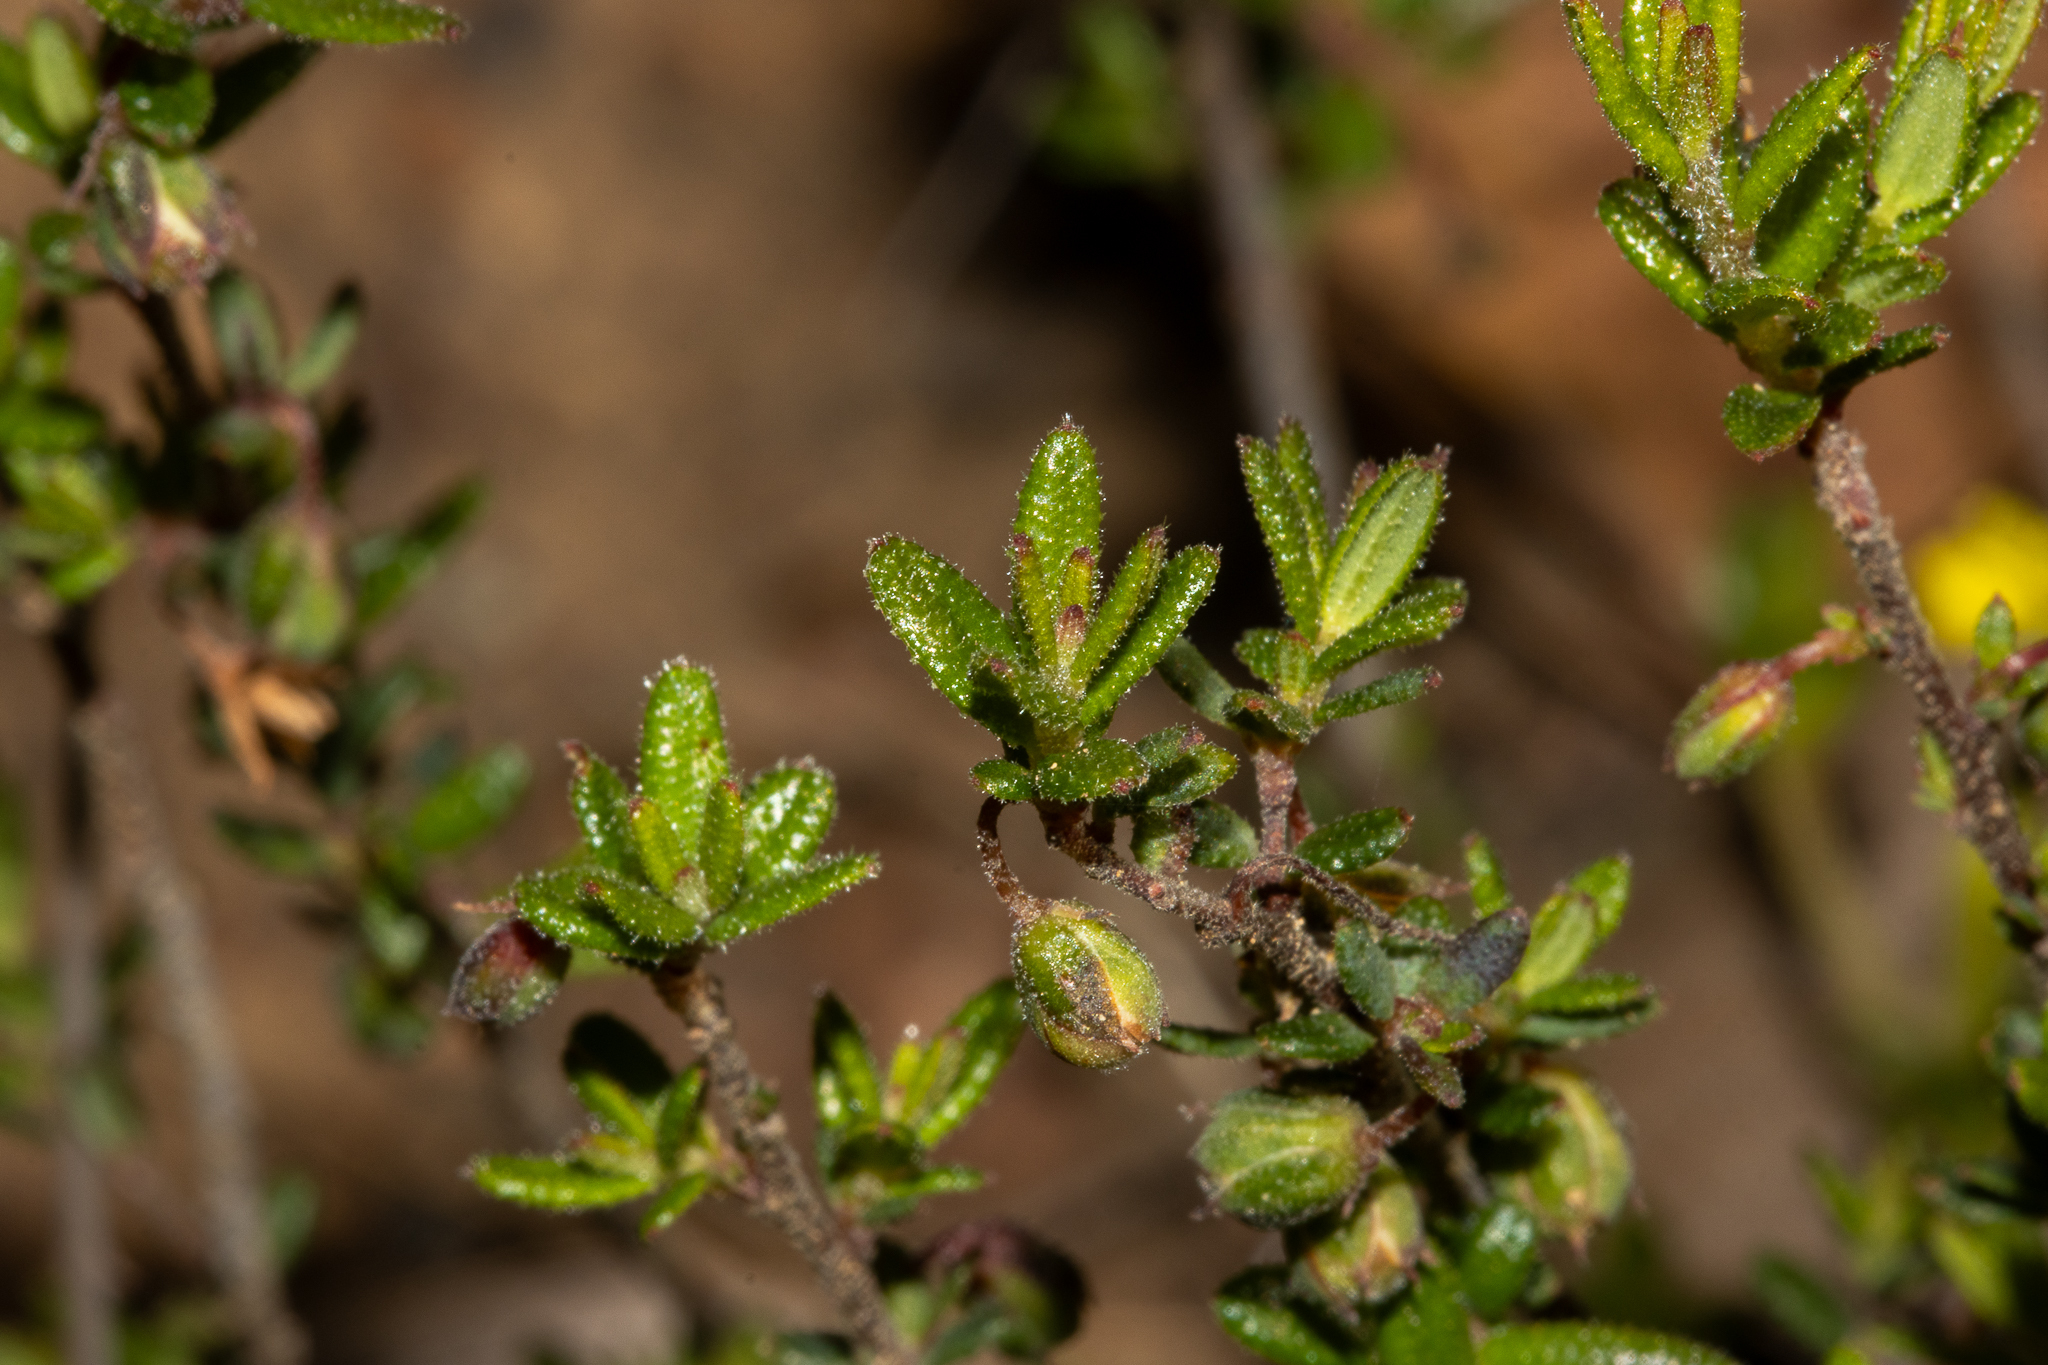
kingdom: Plantae
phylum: Tracheophyta
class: Magnoliopsida
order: Dilleniales
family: Dilleniaceae
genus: Hibbertia
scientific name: Hibbertia
